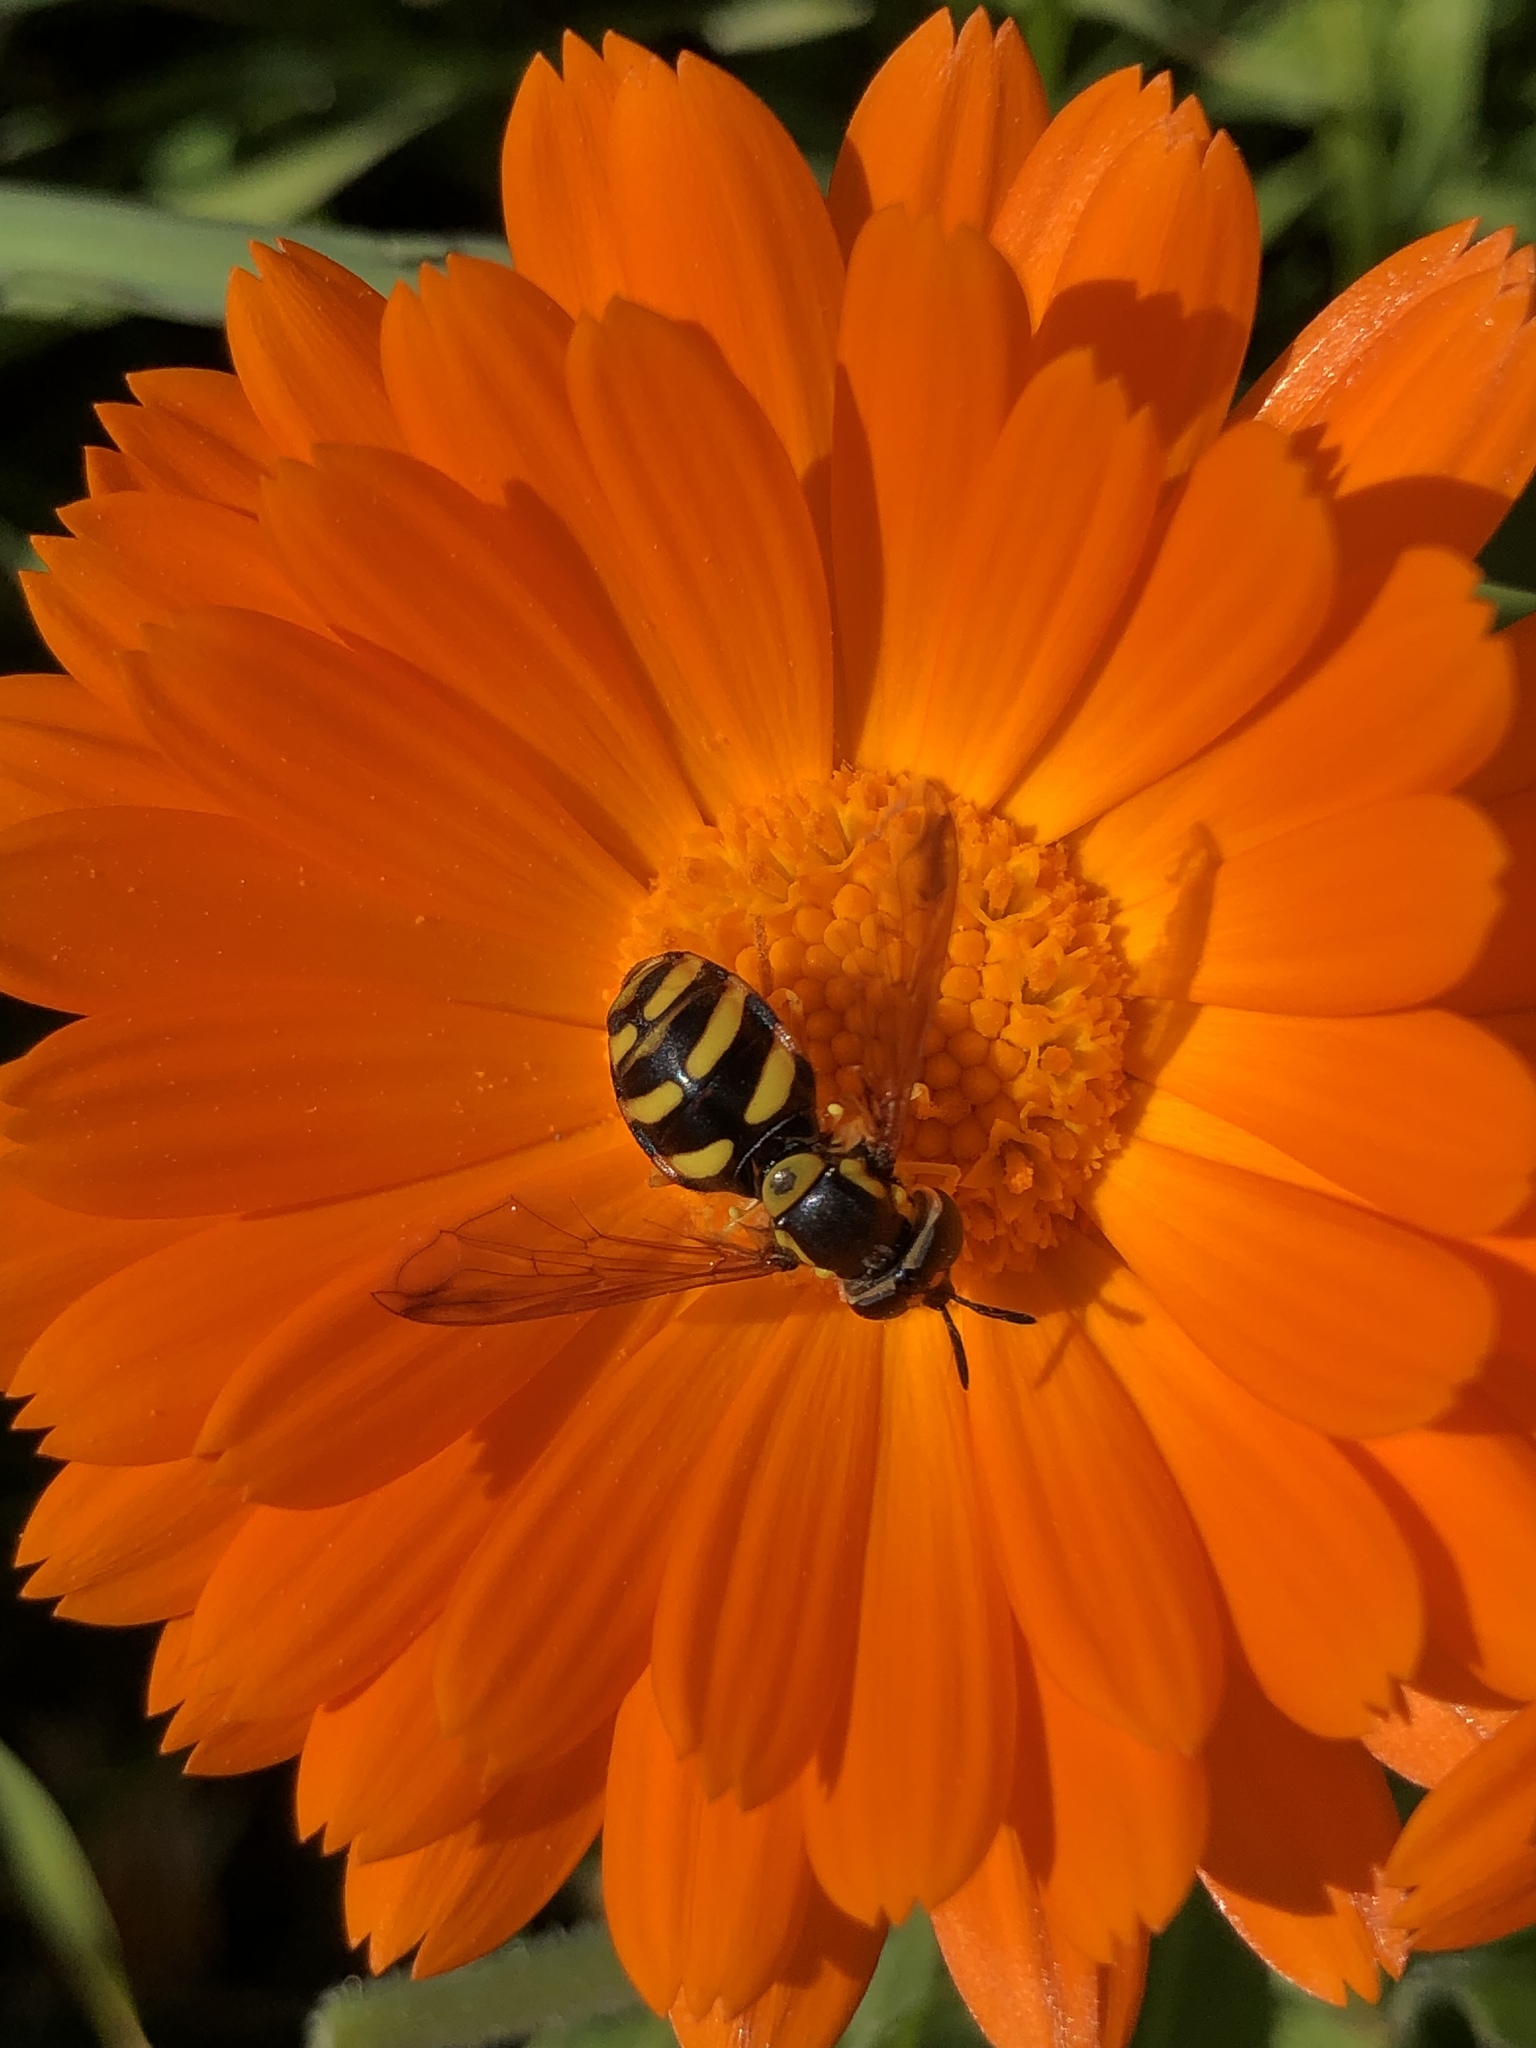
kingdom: Animalia
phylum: Arthropoda
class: Insecta
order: Diptera
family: Syrphidae
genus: Chrysotoxum
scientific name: Chrysotoxum intermedium
